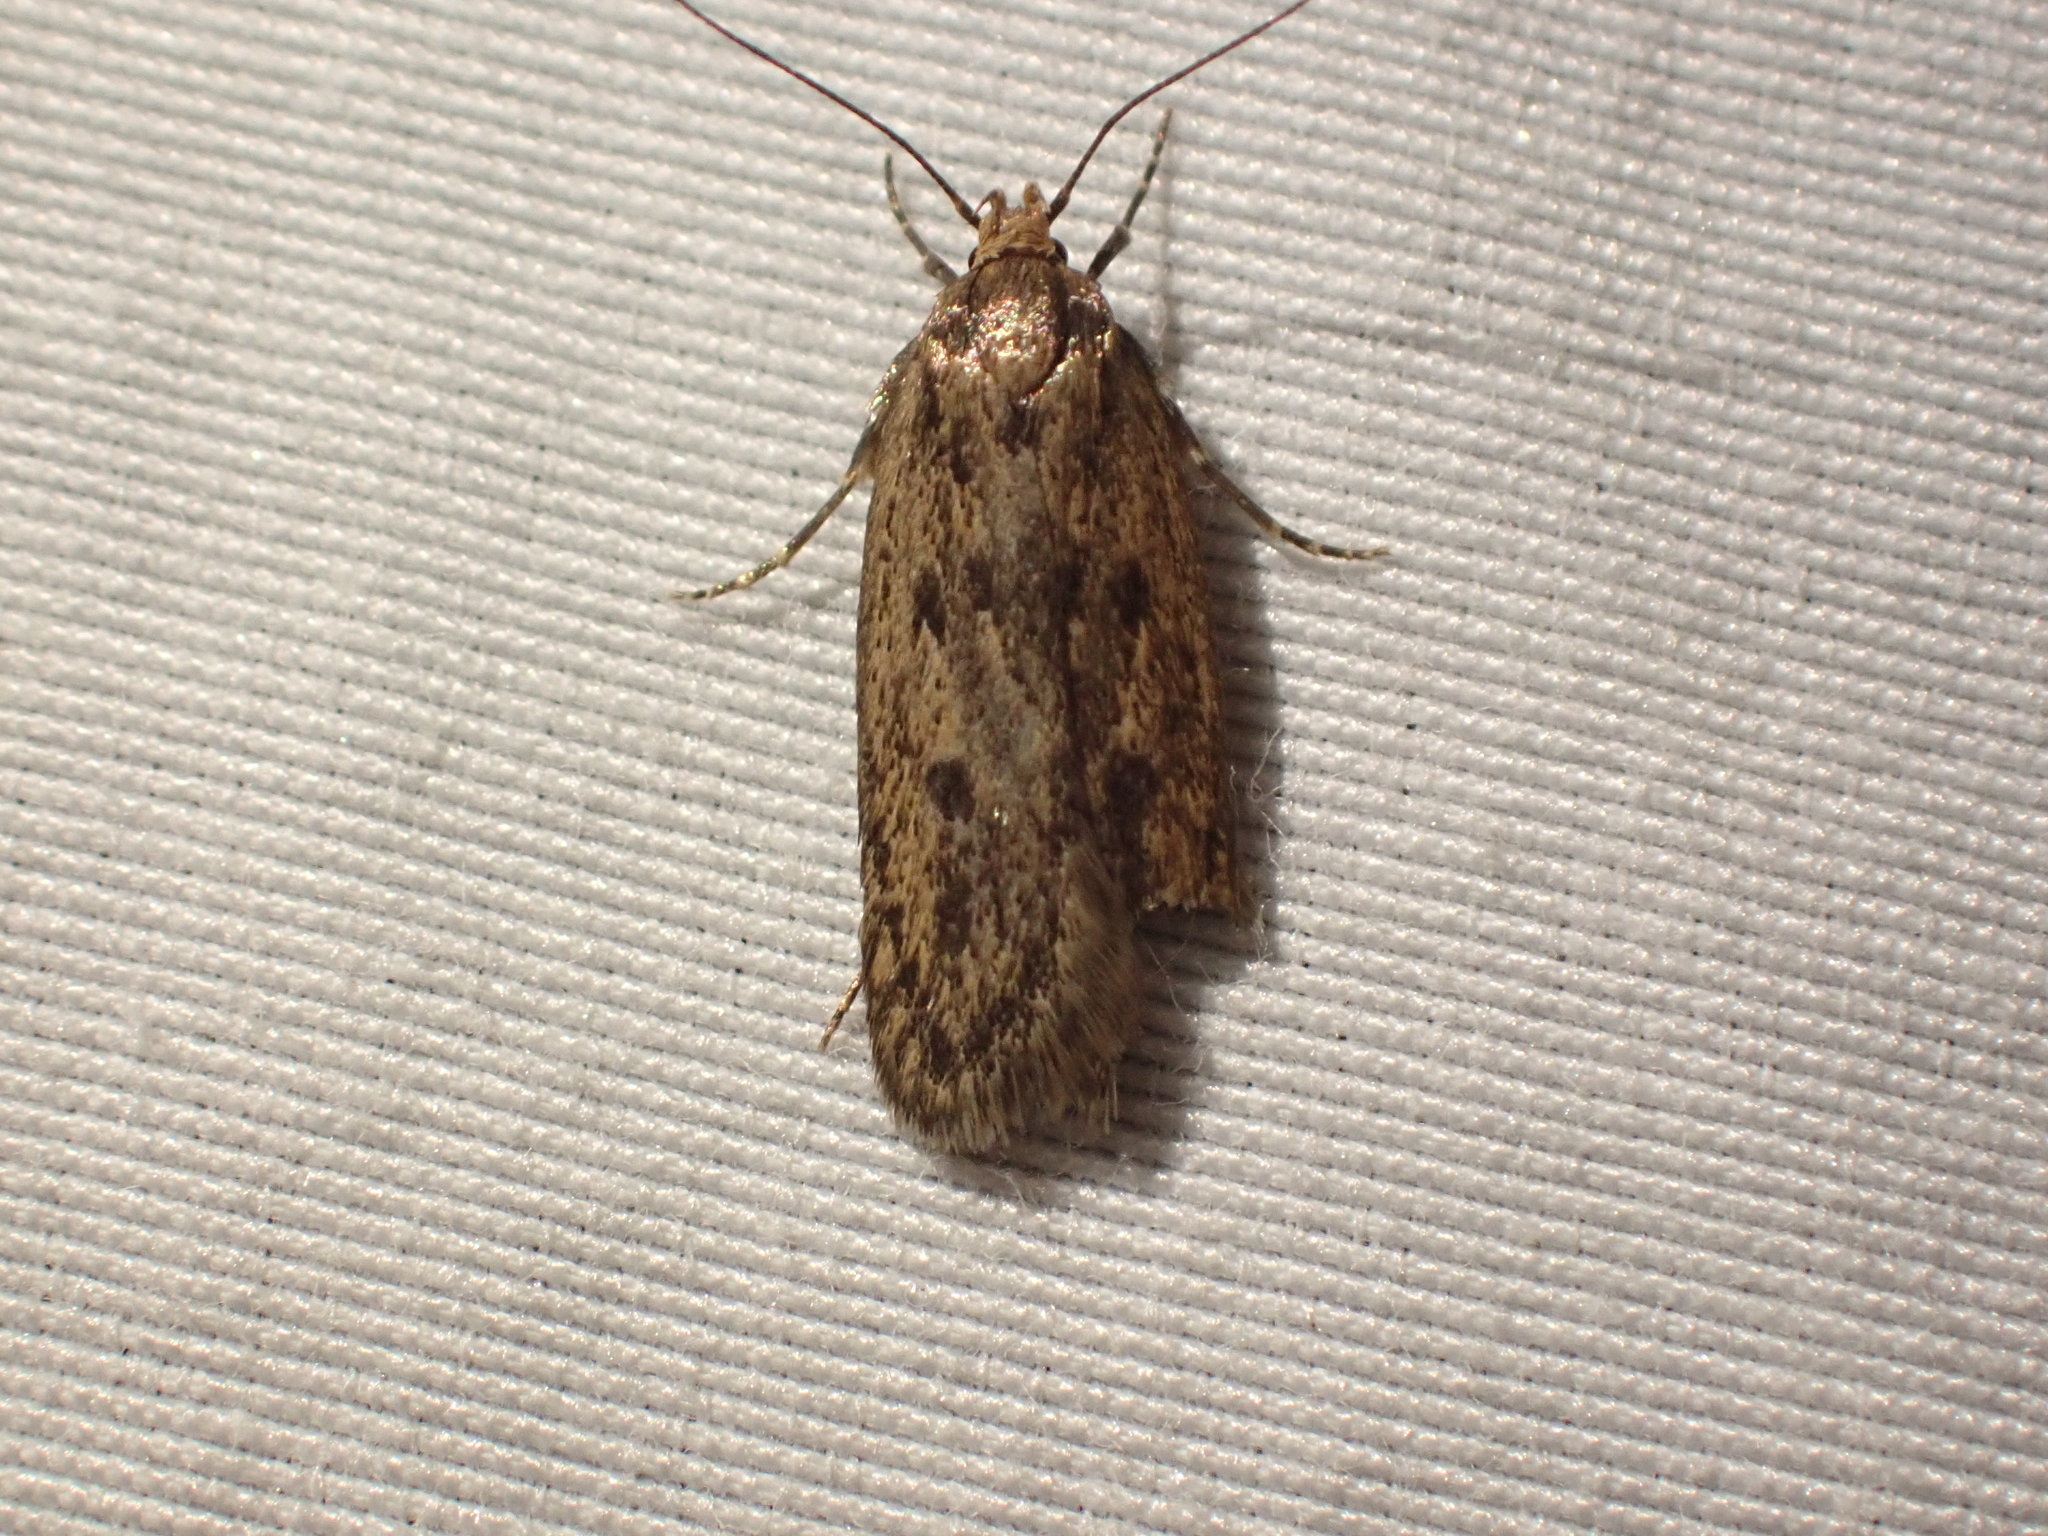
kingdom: Animalia
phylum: Arthropoda
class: Insecta
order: Lepidoptera
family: Oecophoridae
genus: Hofmannophila
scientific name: Hofmannophila pseudospretella
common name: Brown house moth
